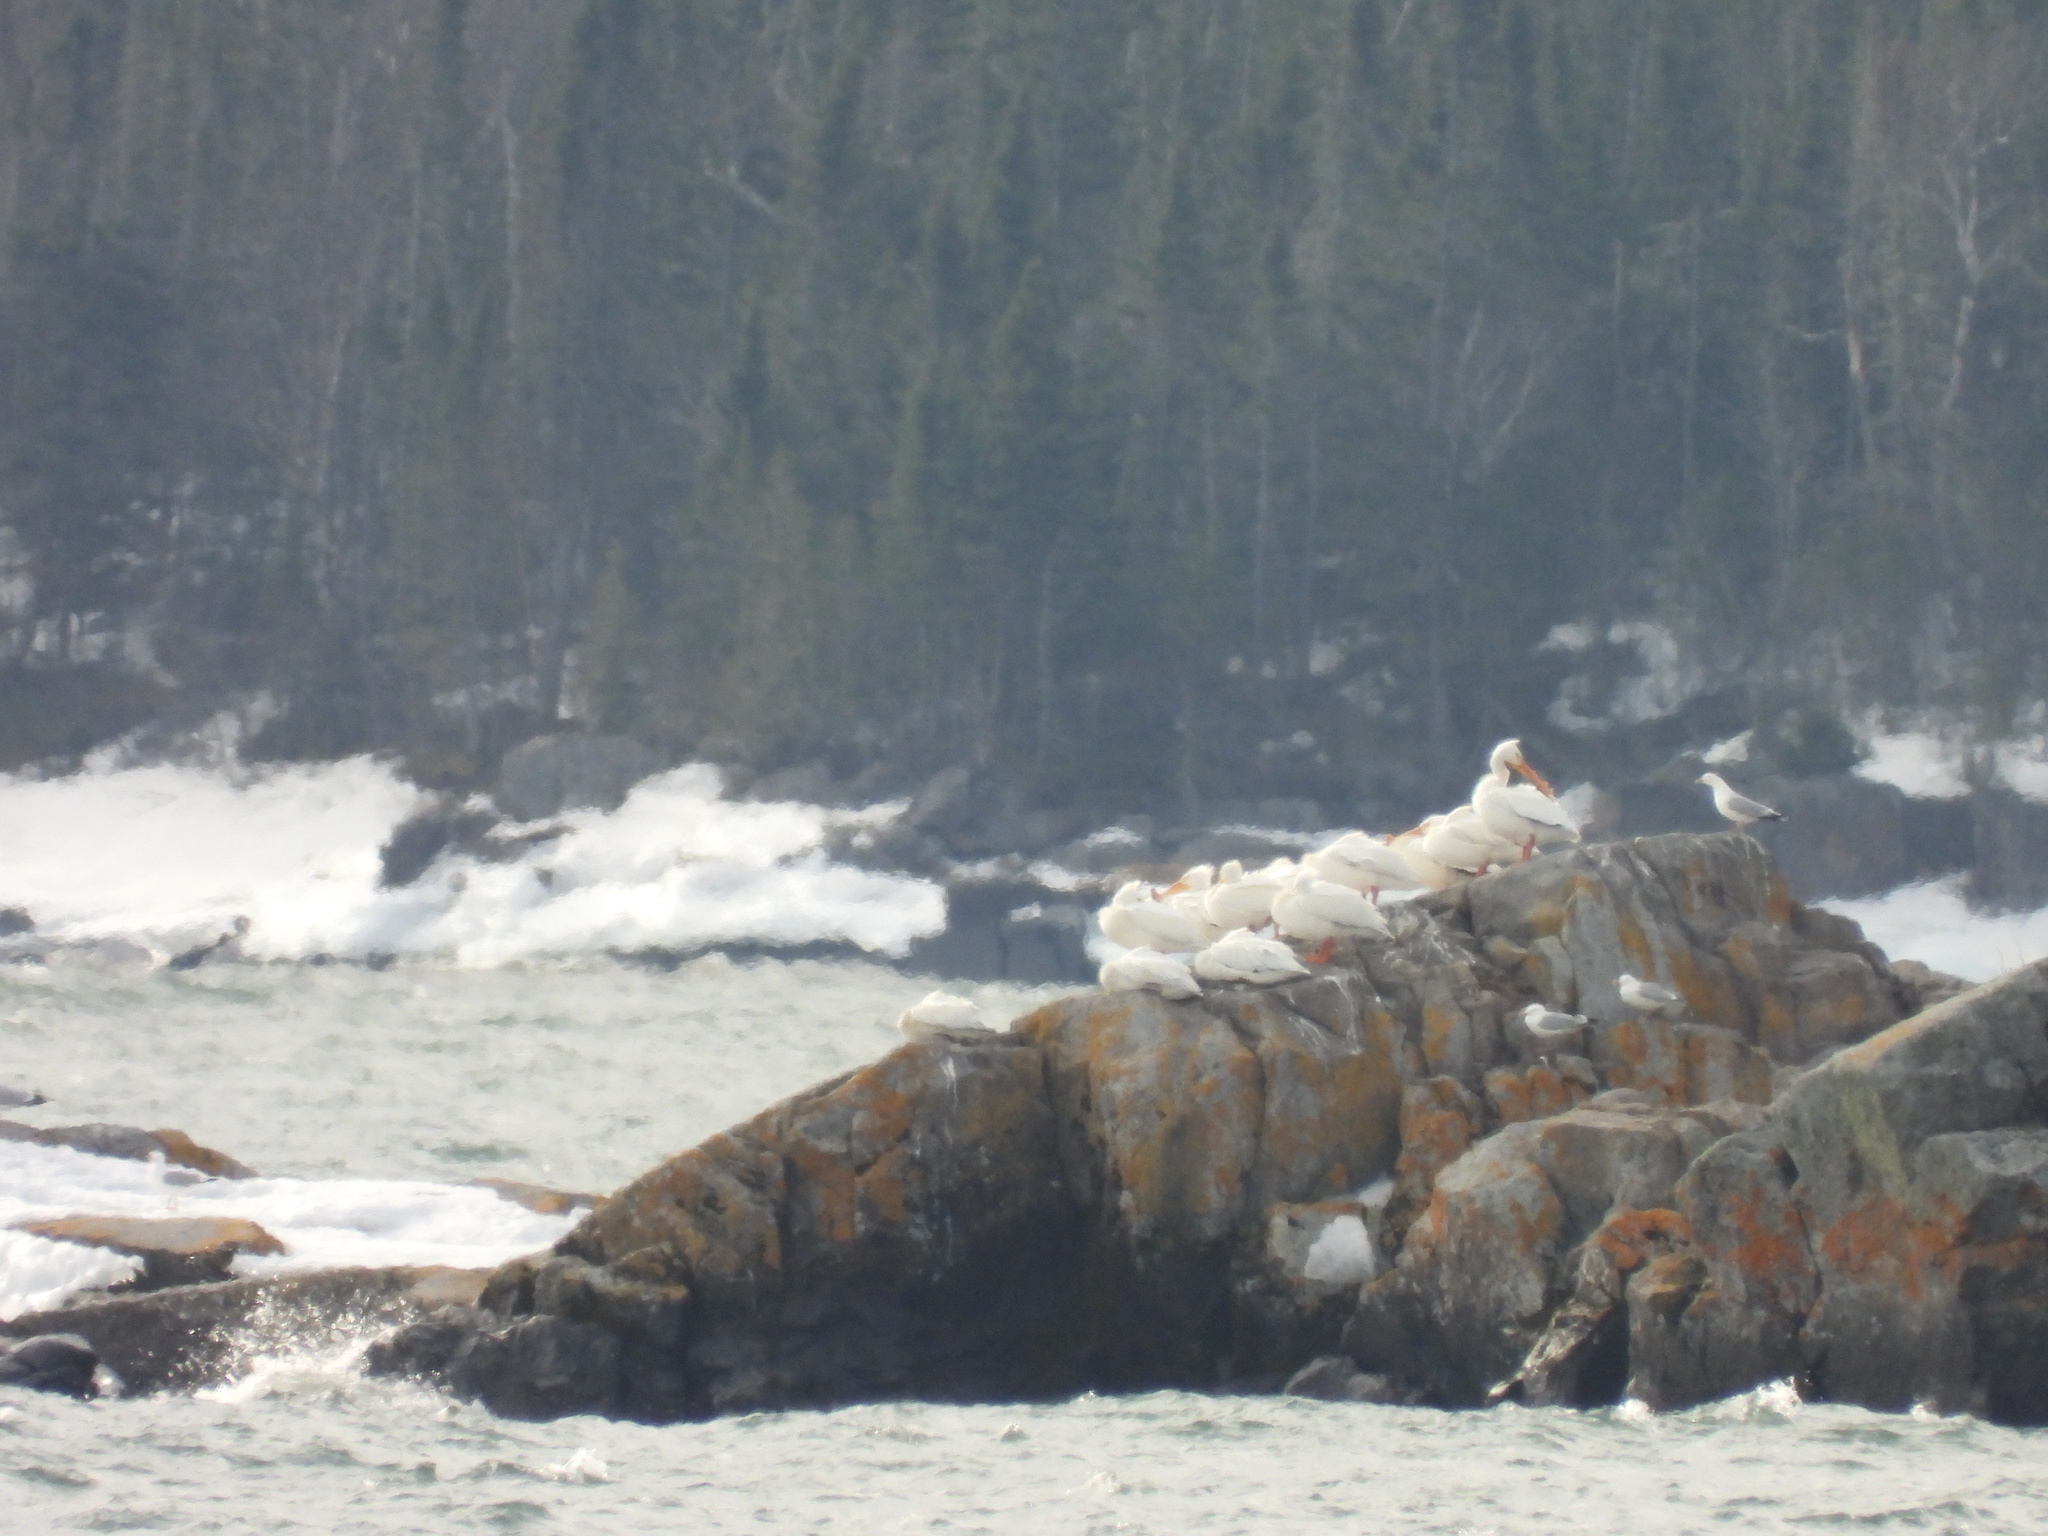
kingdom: Animalia
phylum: Chordata
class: Aves
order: Pelecaniformes
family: Pelecanidae
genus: Pelecanus
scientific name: Pelecanus erythrorhynchos
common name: American white pelican
